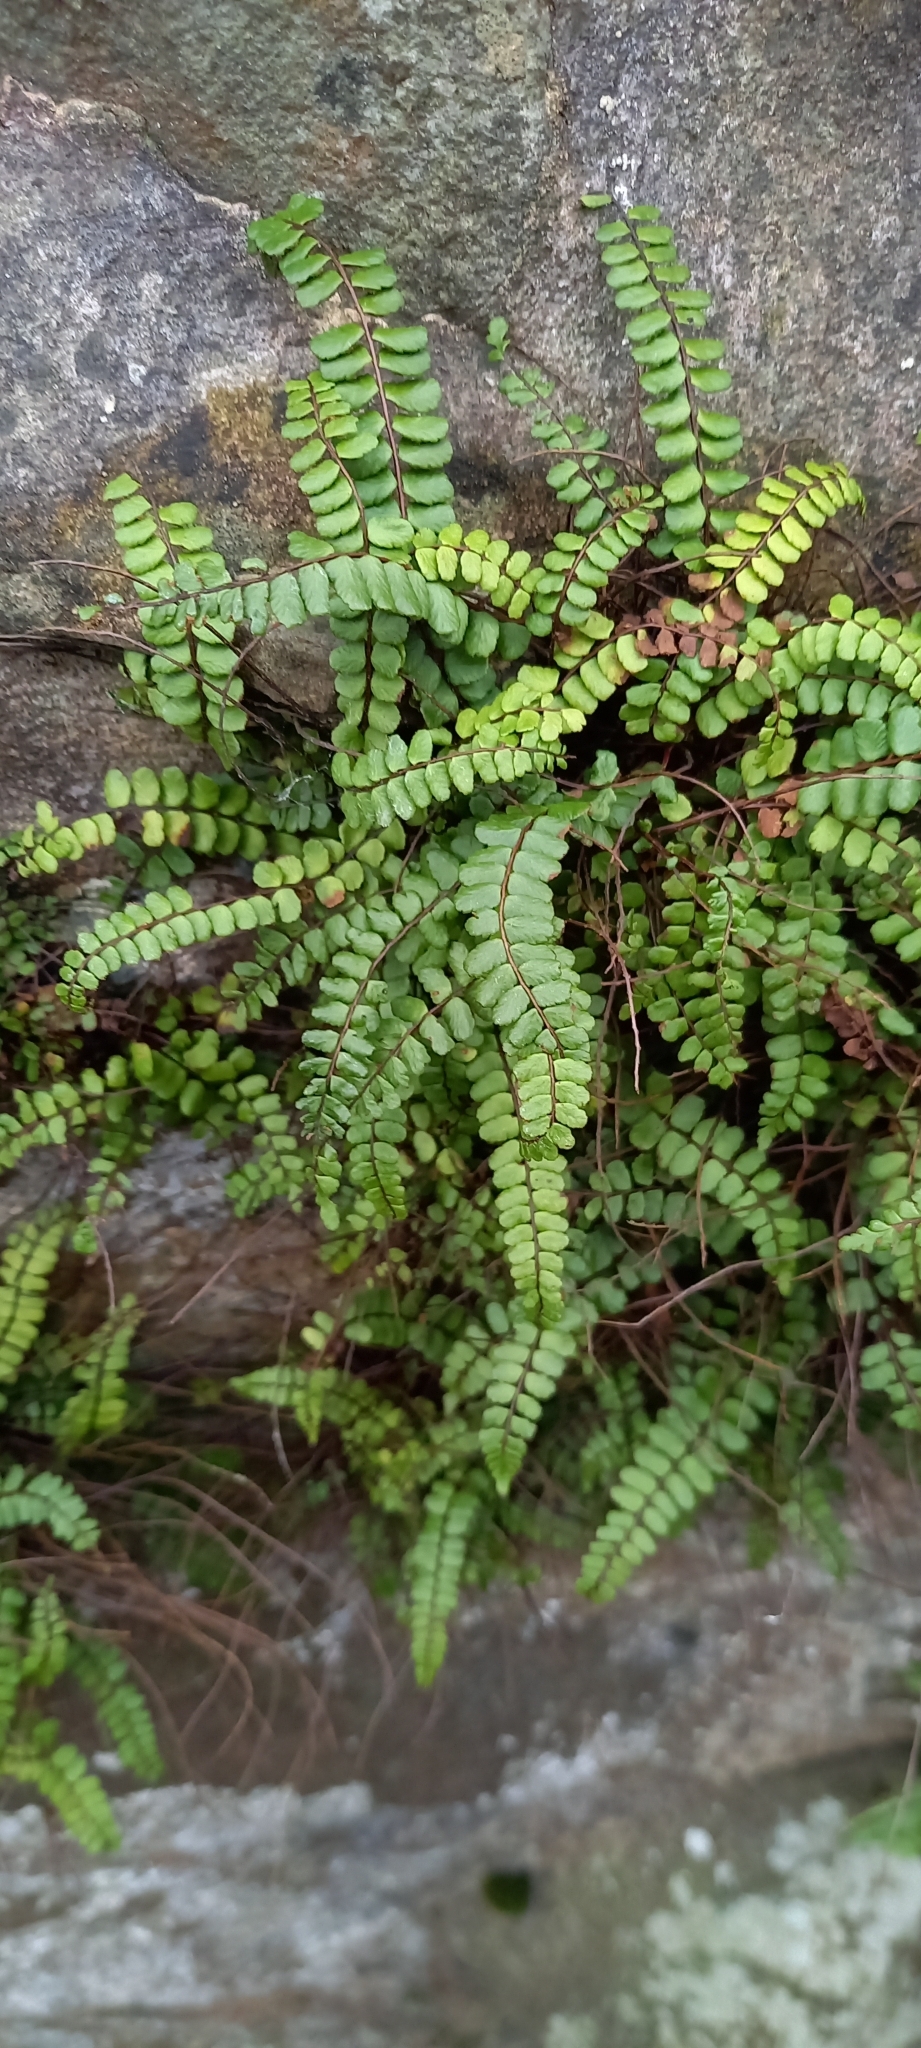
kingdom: Plantae
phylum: Tracheophyta
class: Polypodiopsida
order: Polypodiales
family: Aspleniaceae
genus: Asplenium
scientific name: Asplenium trichomanes
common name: Maidenhair spleenwort
